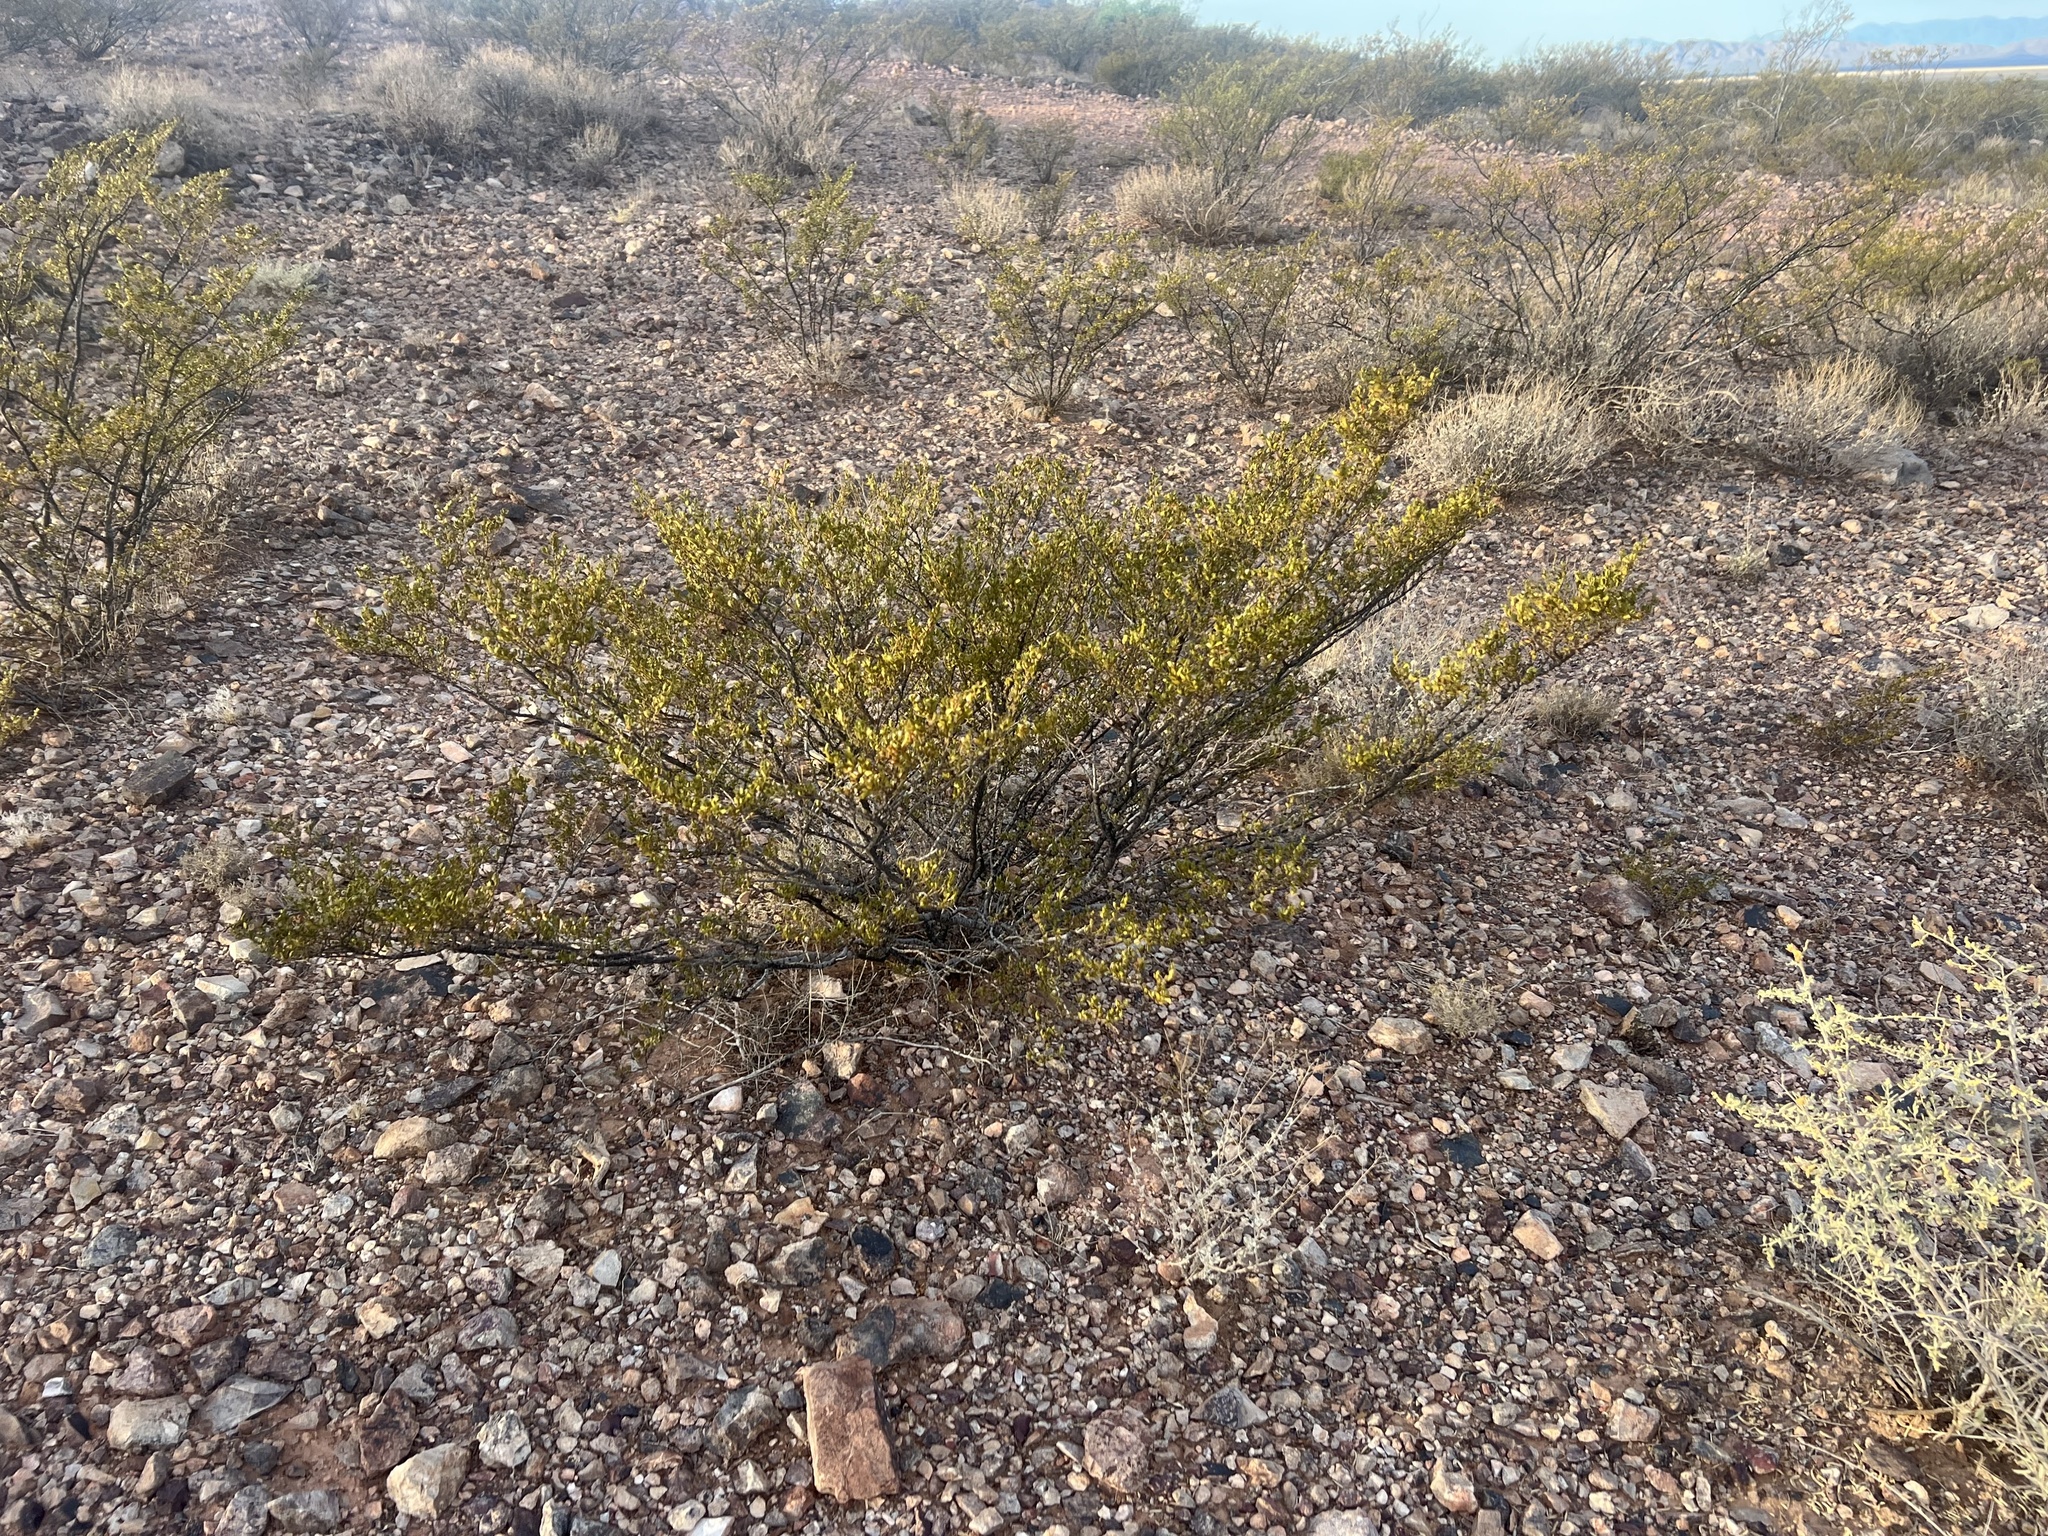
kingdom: Plantae
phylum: Tracheophyta
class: Magnoliopsida
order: Zygophyllales
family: Zygophyllaceae
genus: Larrea
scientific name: Larrea tridentata
